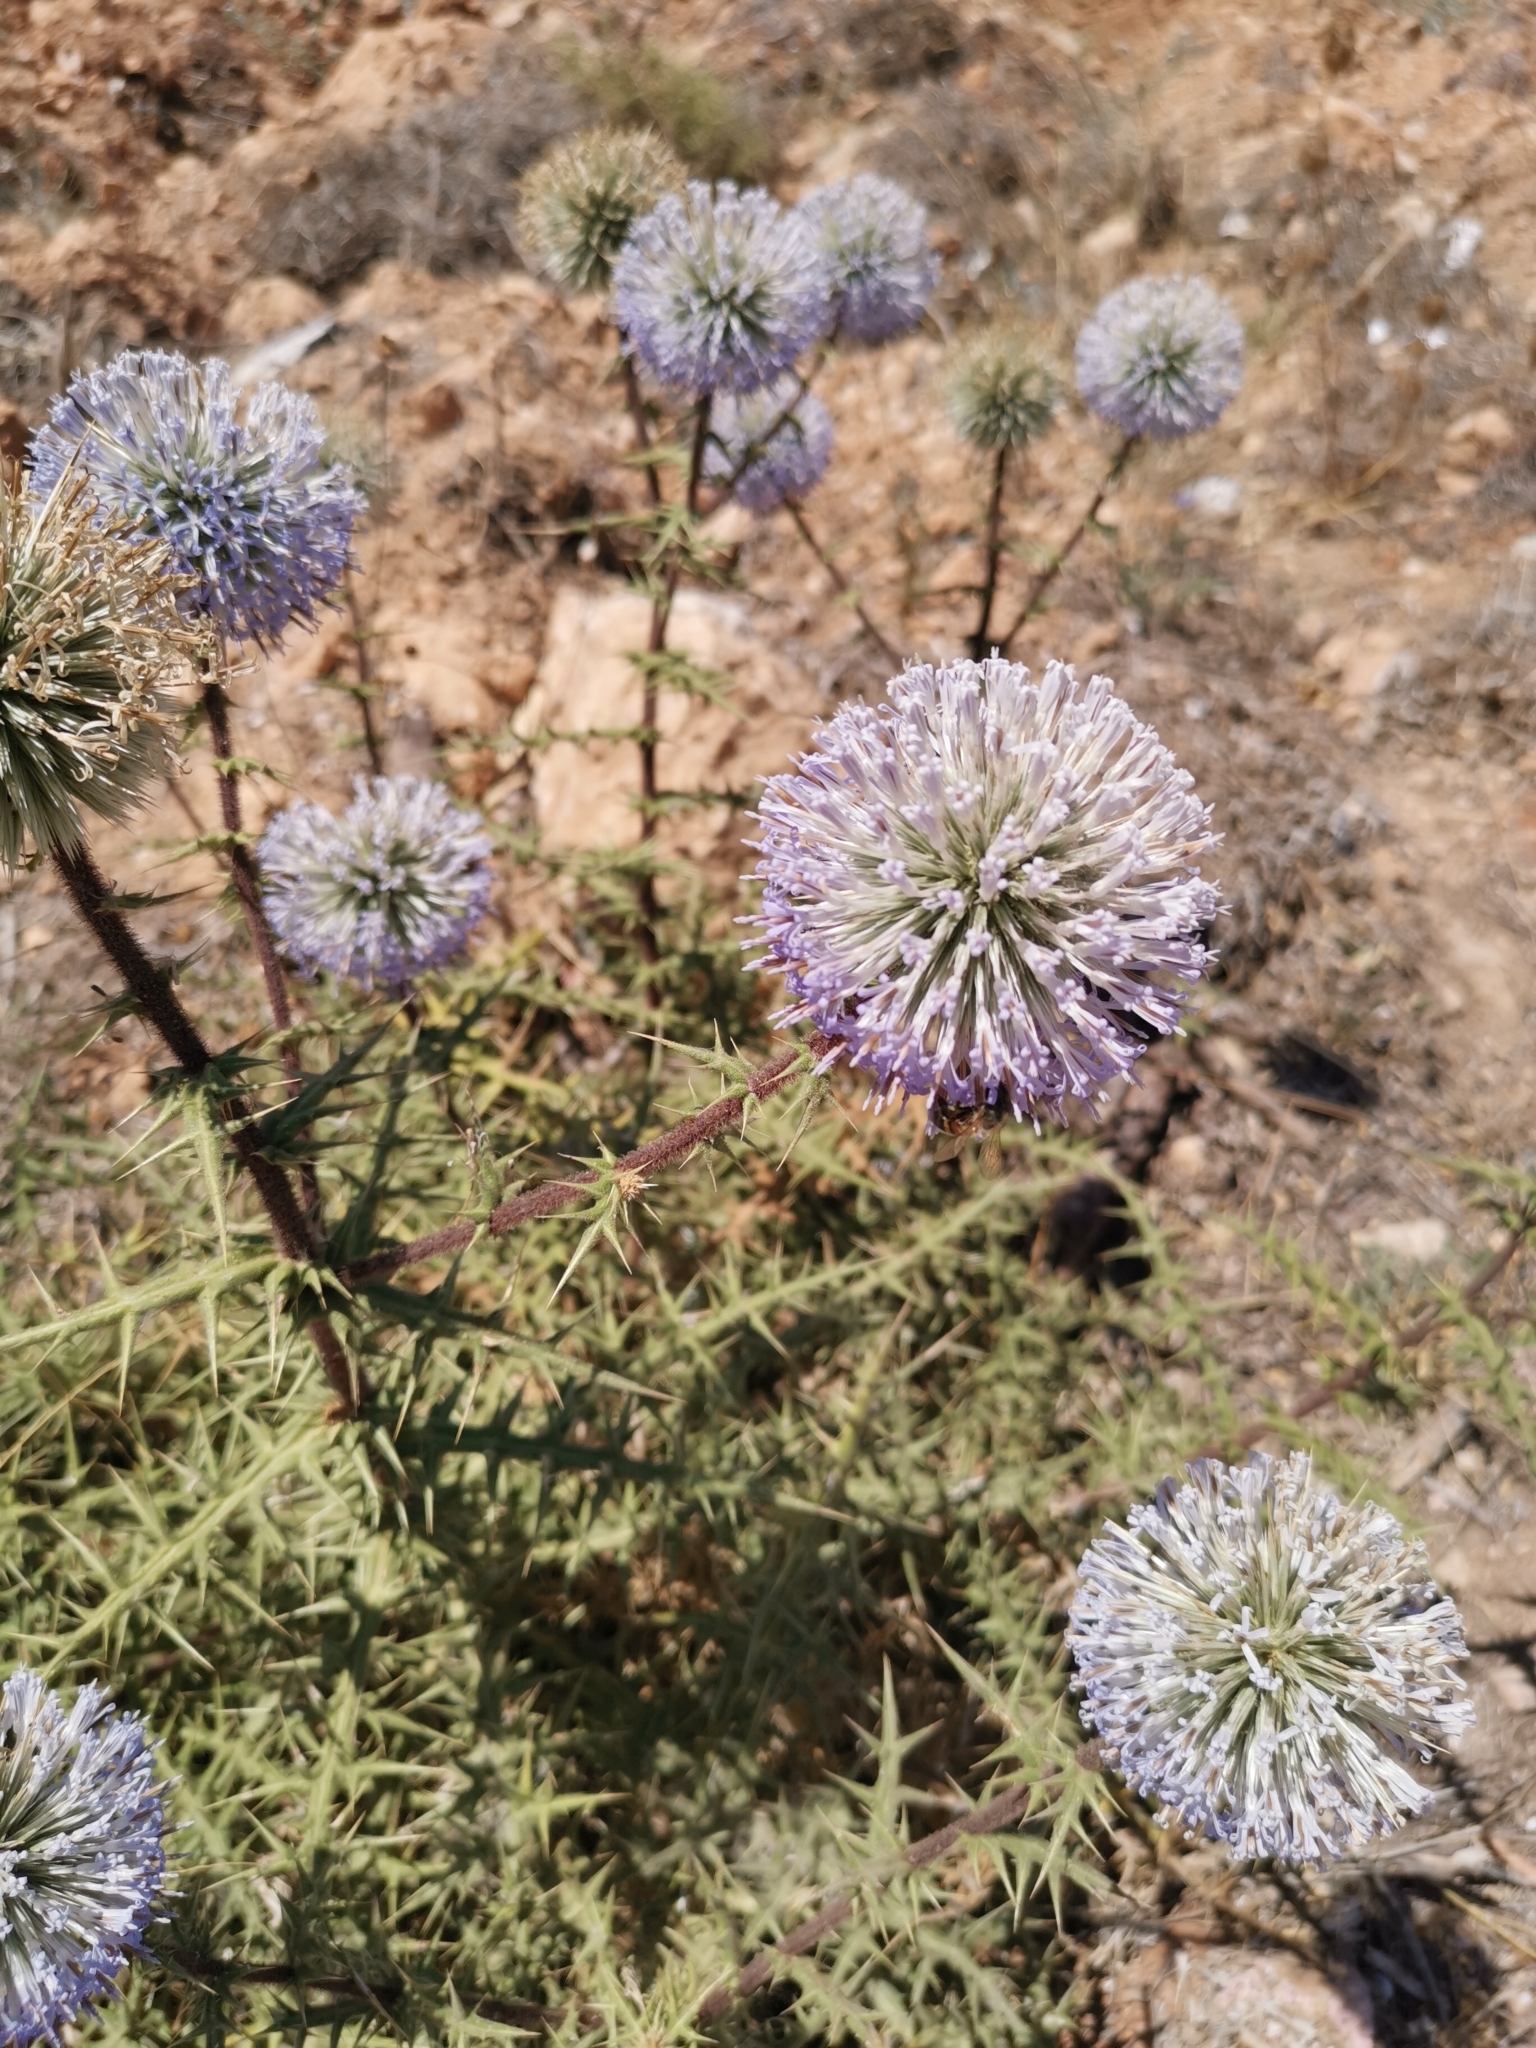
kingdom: Plantae
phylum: Tracheophyta
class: Magnoliopsida
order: Asterales
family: Asteraceae
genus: Echinops
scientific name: Echinops spinosissimus
